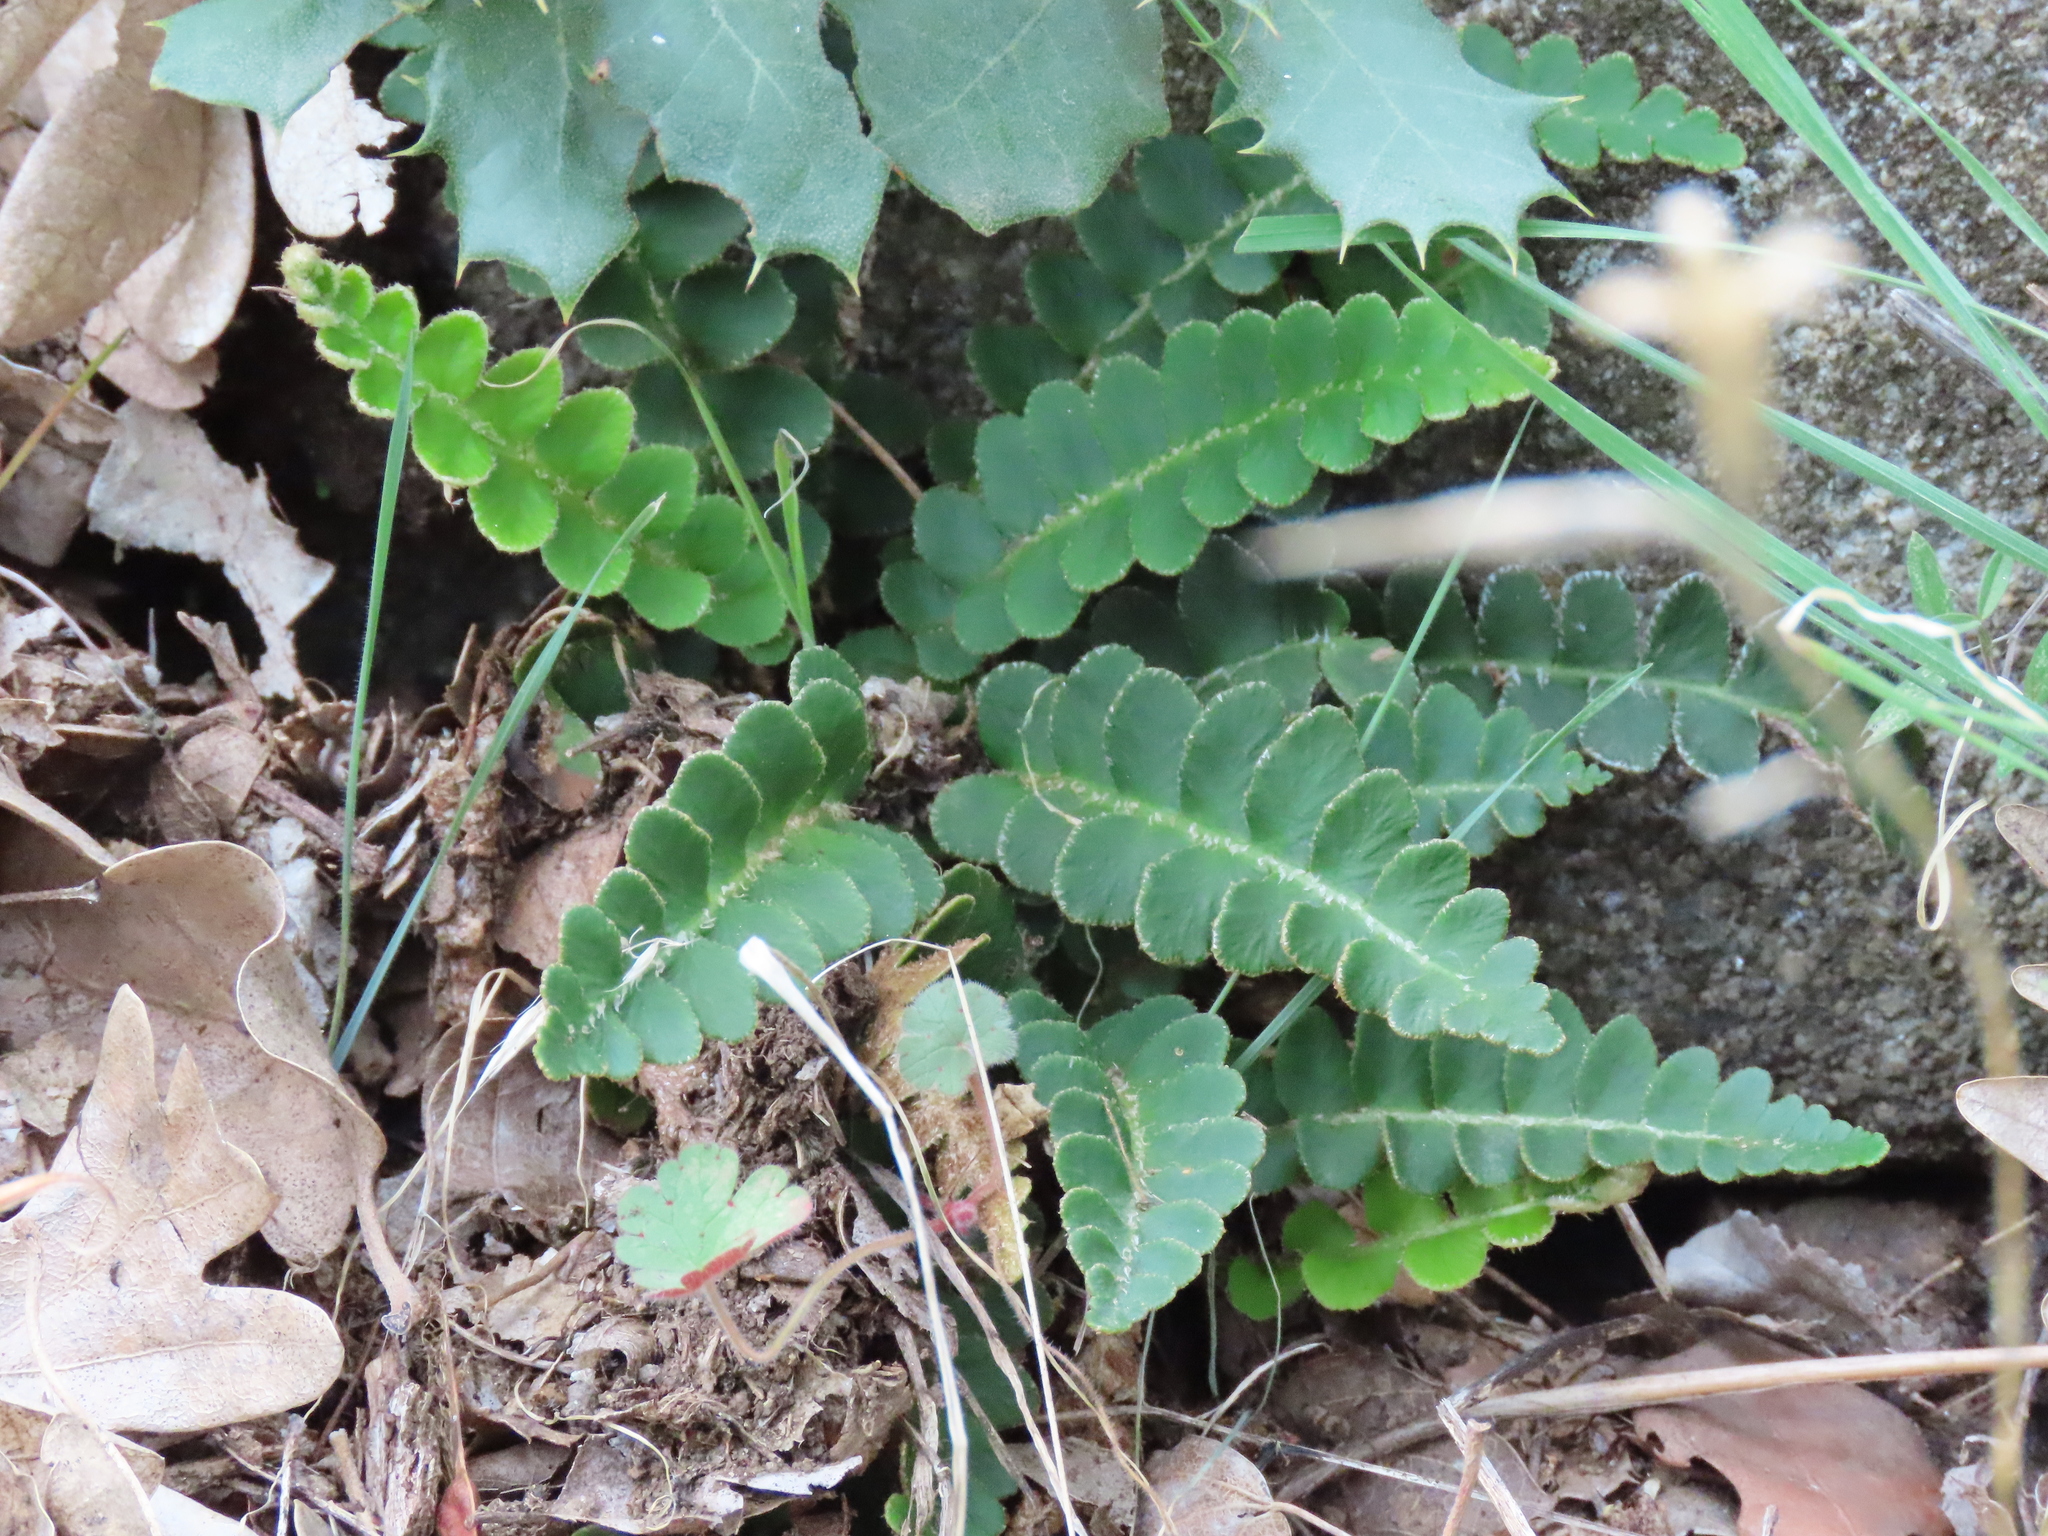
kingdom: Plantae
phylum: Tracheophyta
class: Polypodiopsida
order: Polypodiales
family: Aspleniaceae
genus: Asplenium
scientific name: Asplenium ceterach
